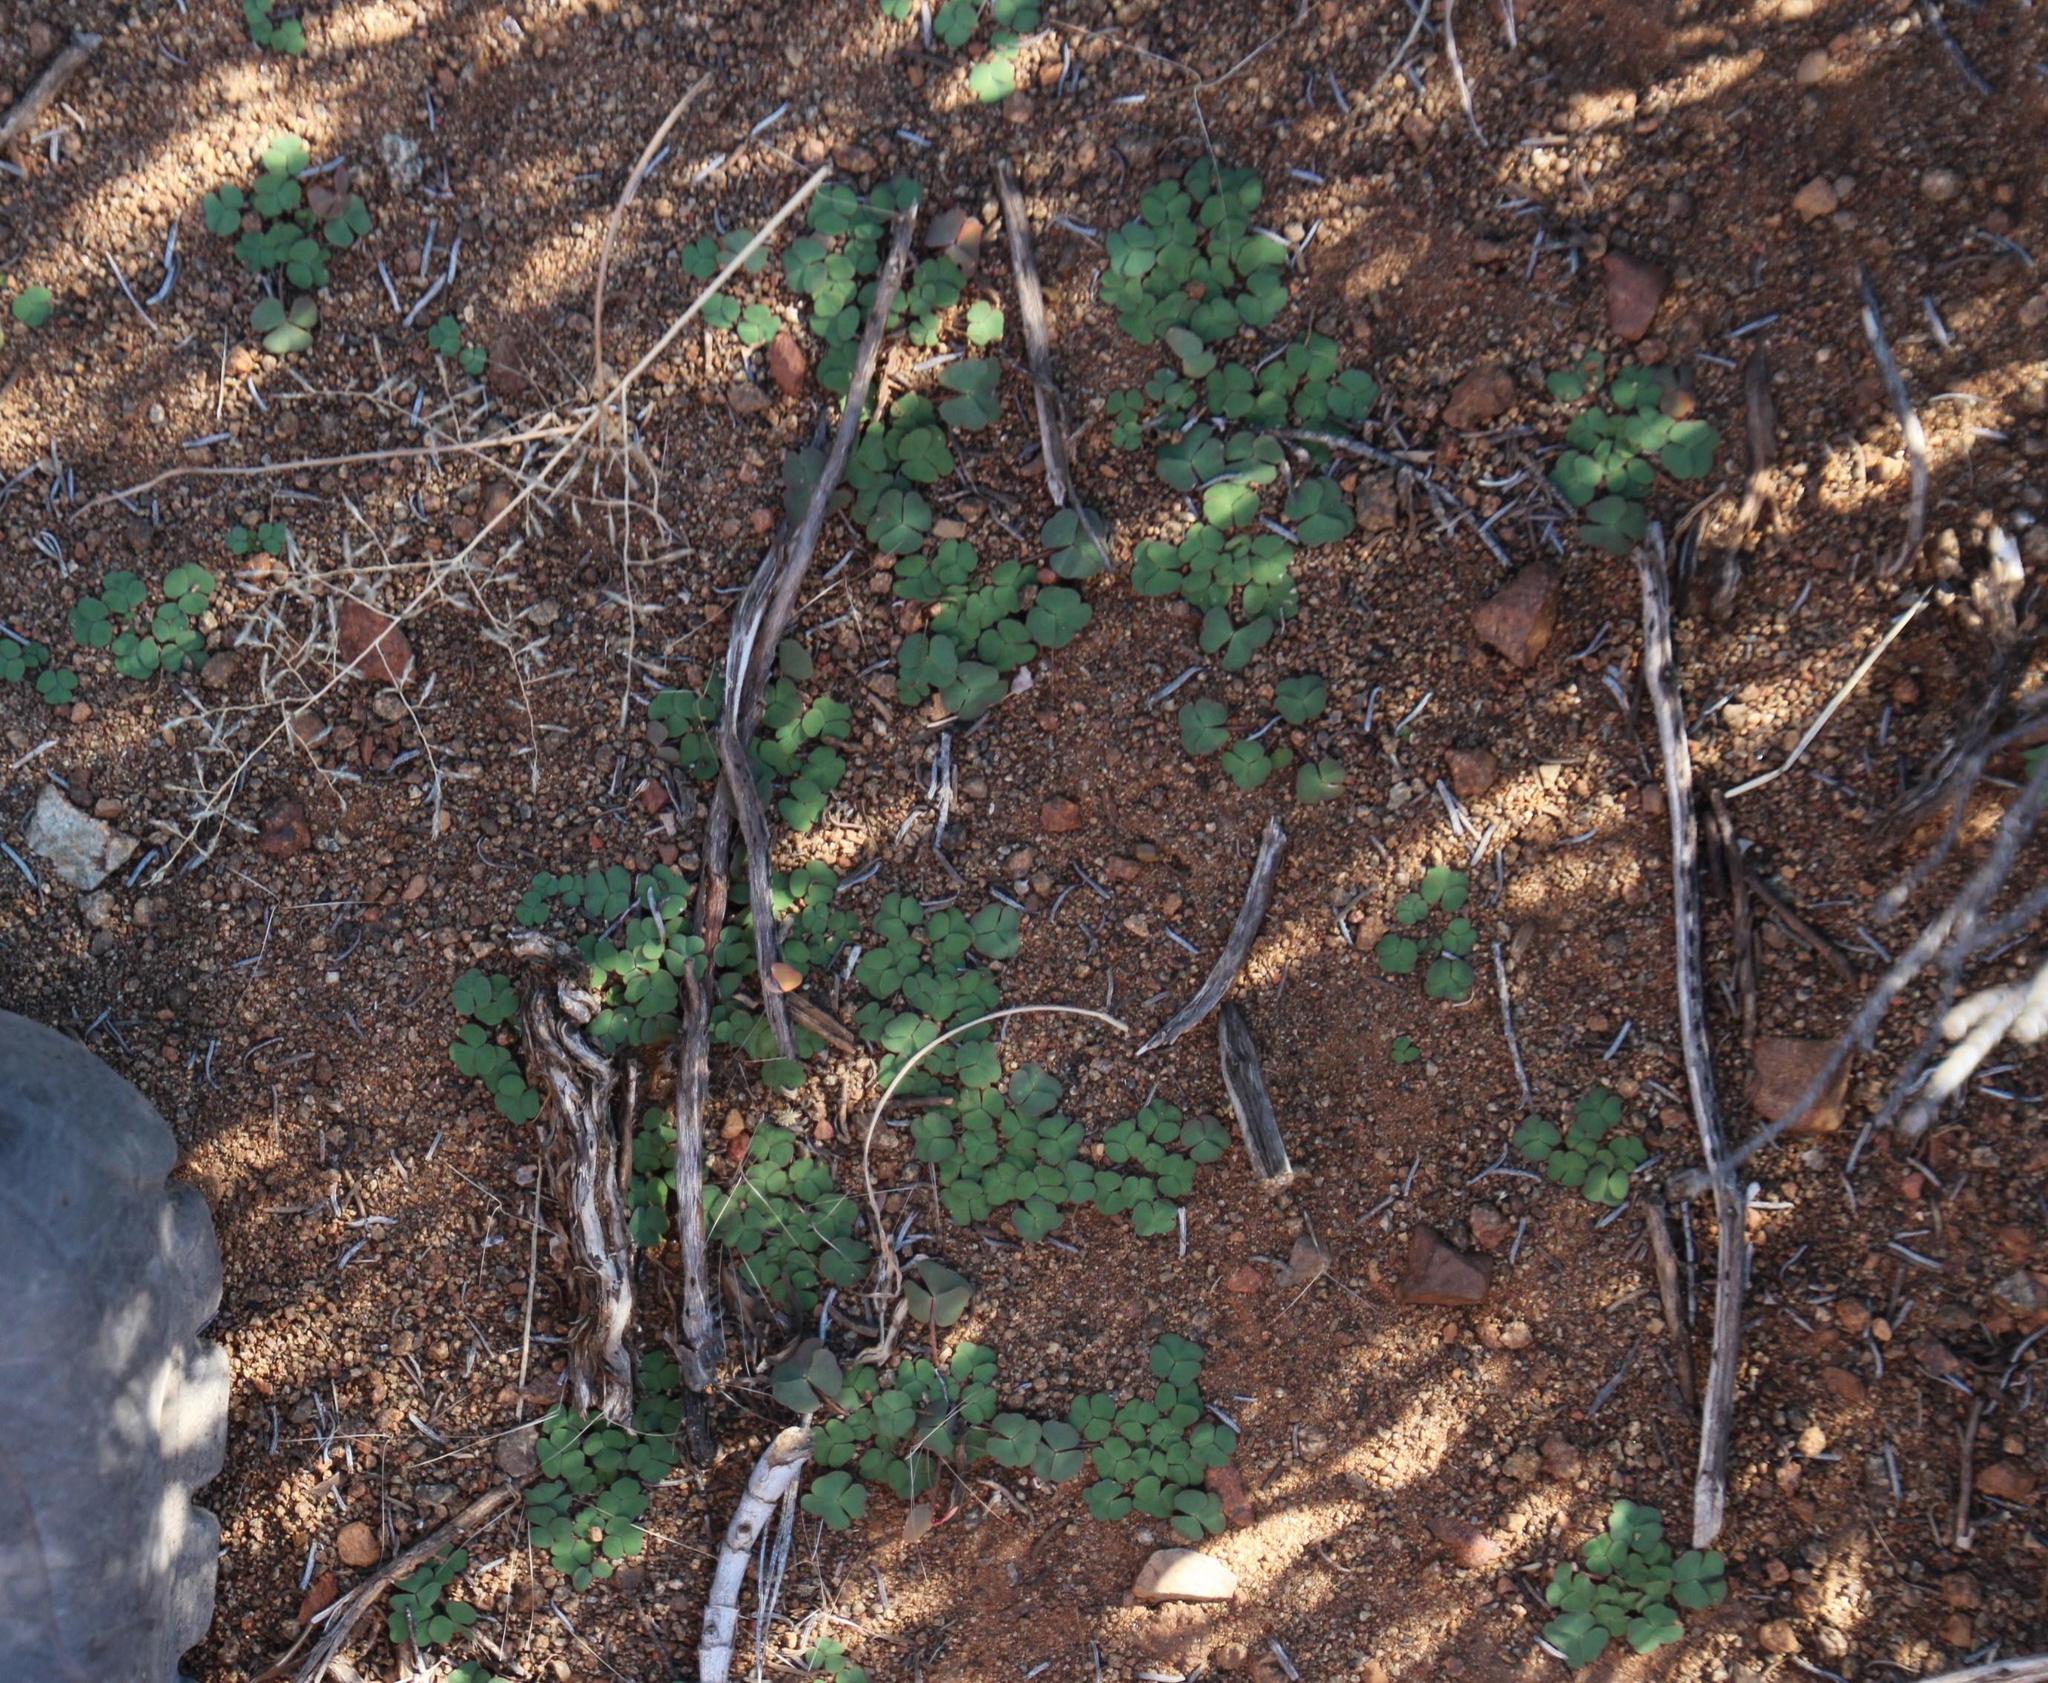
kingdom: Plantae
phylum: Tracheophyta
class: Magnoliopsida
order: Oxalidales
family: Oxalidaceae
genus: Oxalis
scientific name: Oxalis depressa
